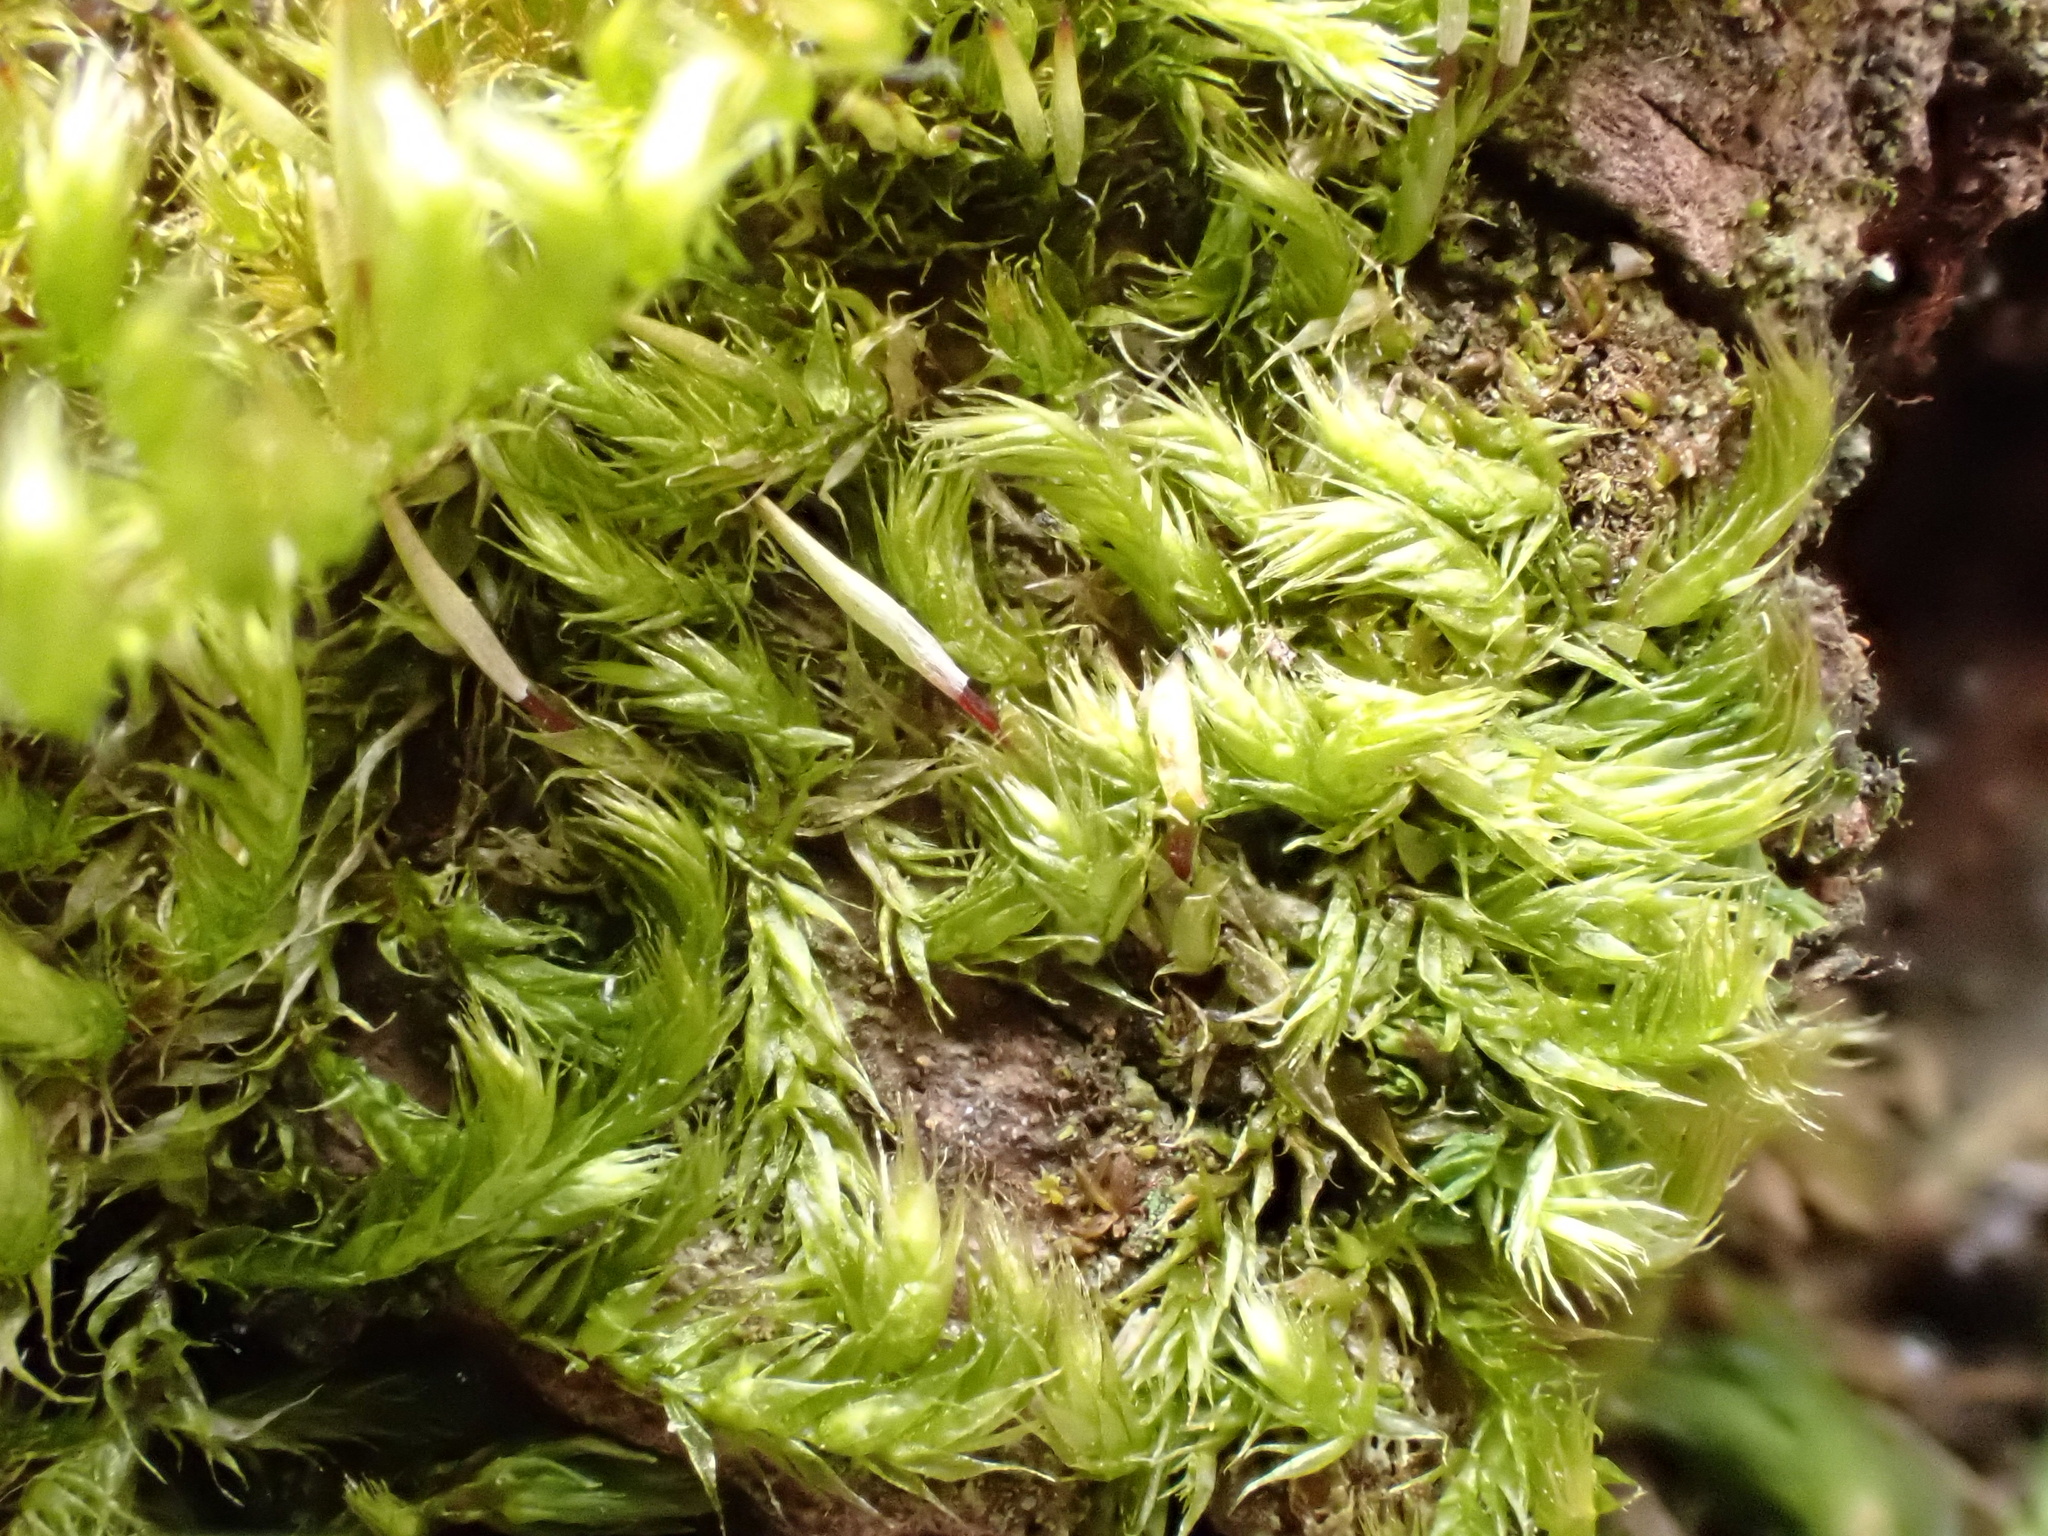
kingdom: Plantae
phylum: Bryophyta
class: Bryopsida
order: Hypnales
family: Pylaisiaceae
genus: Pylaisia
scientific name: Pylaisia polyantha
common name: Many-flowered leskea
